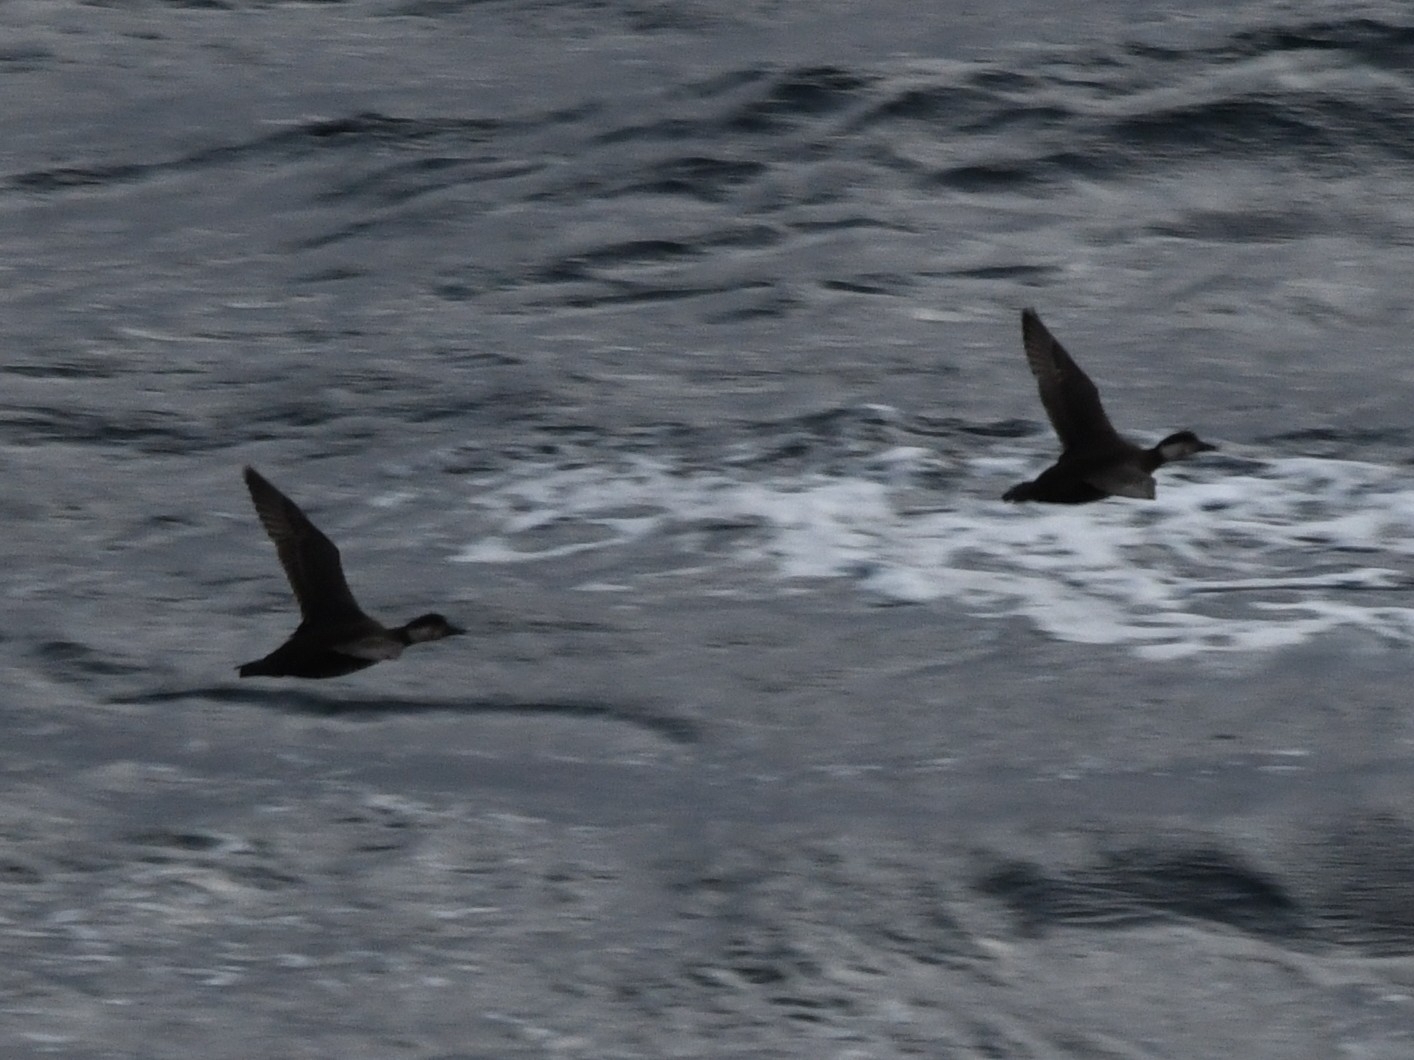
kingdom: Animalia
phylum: Chordata
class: Aves
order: Anseriformes
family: Anatidae
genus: Melanitta
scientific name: Melanitta nigra
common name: Common scoter
